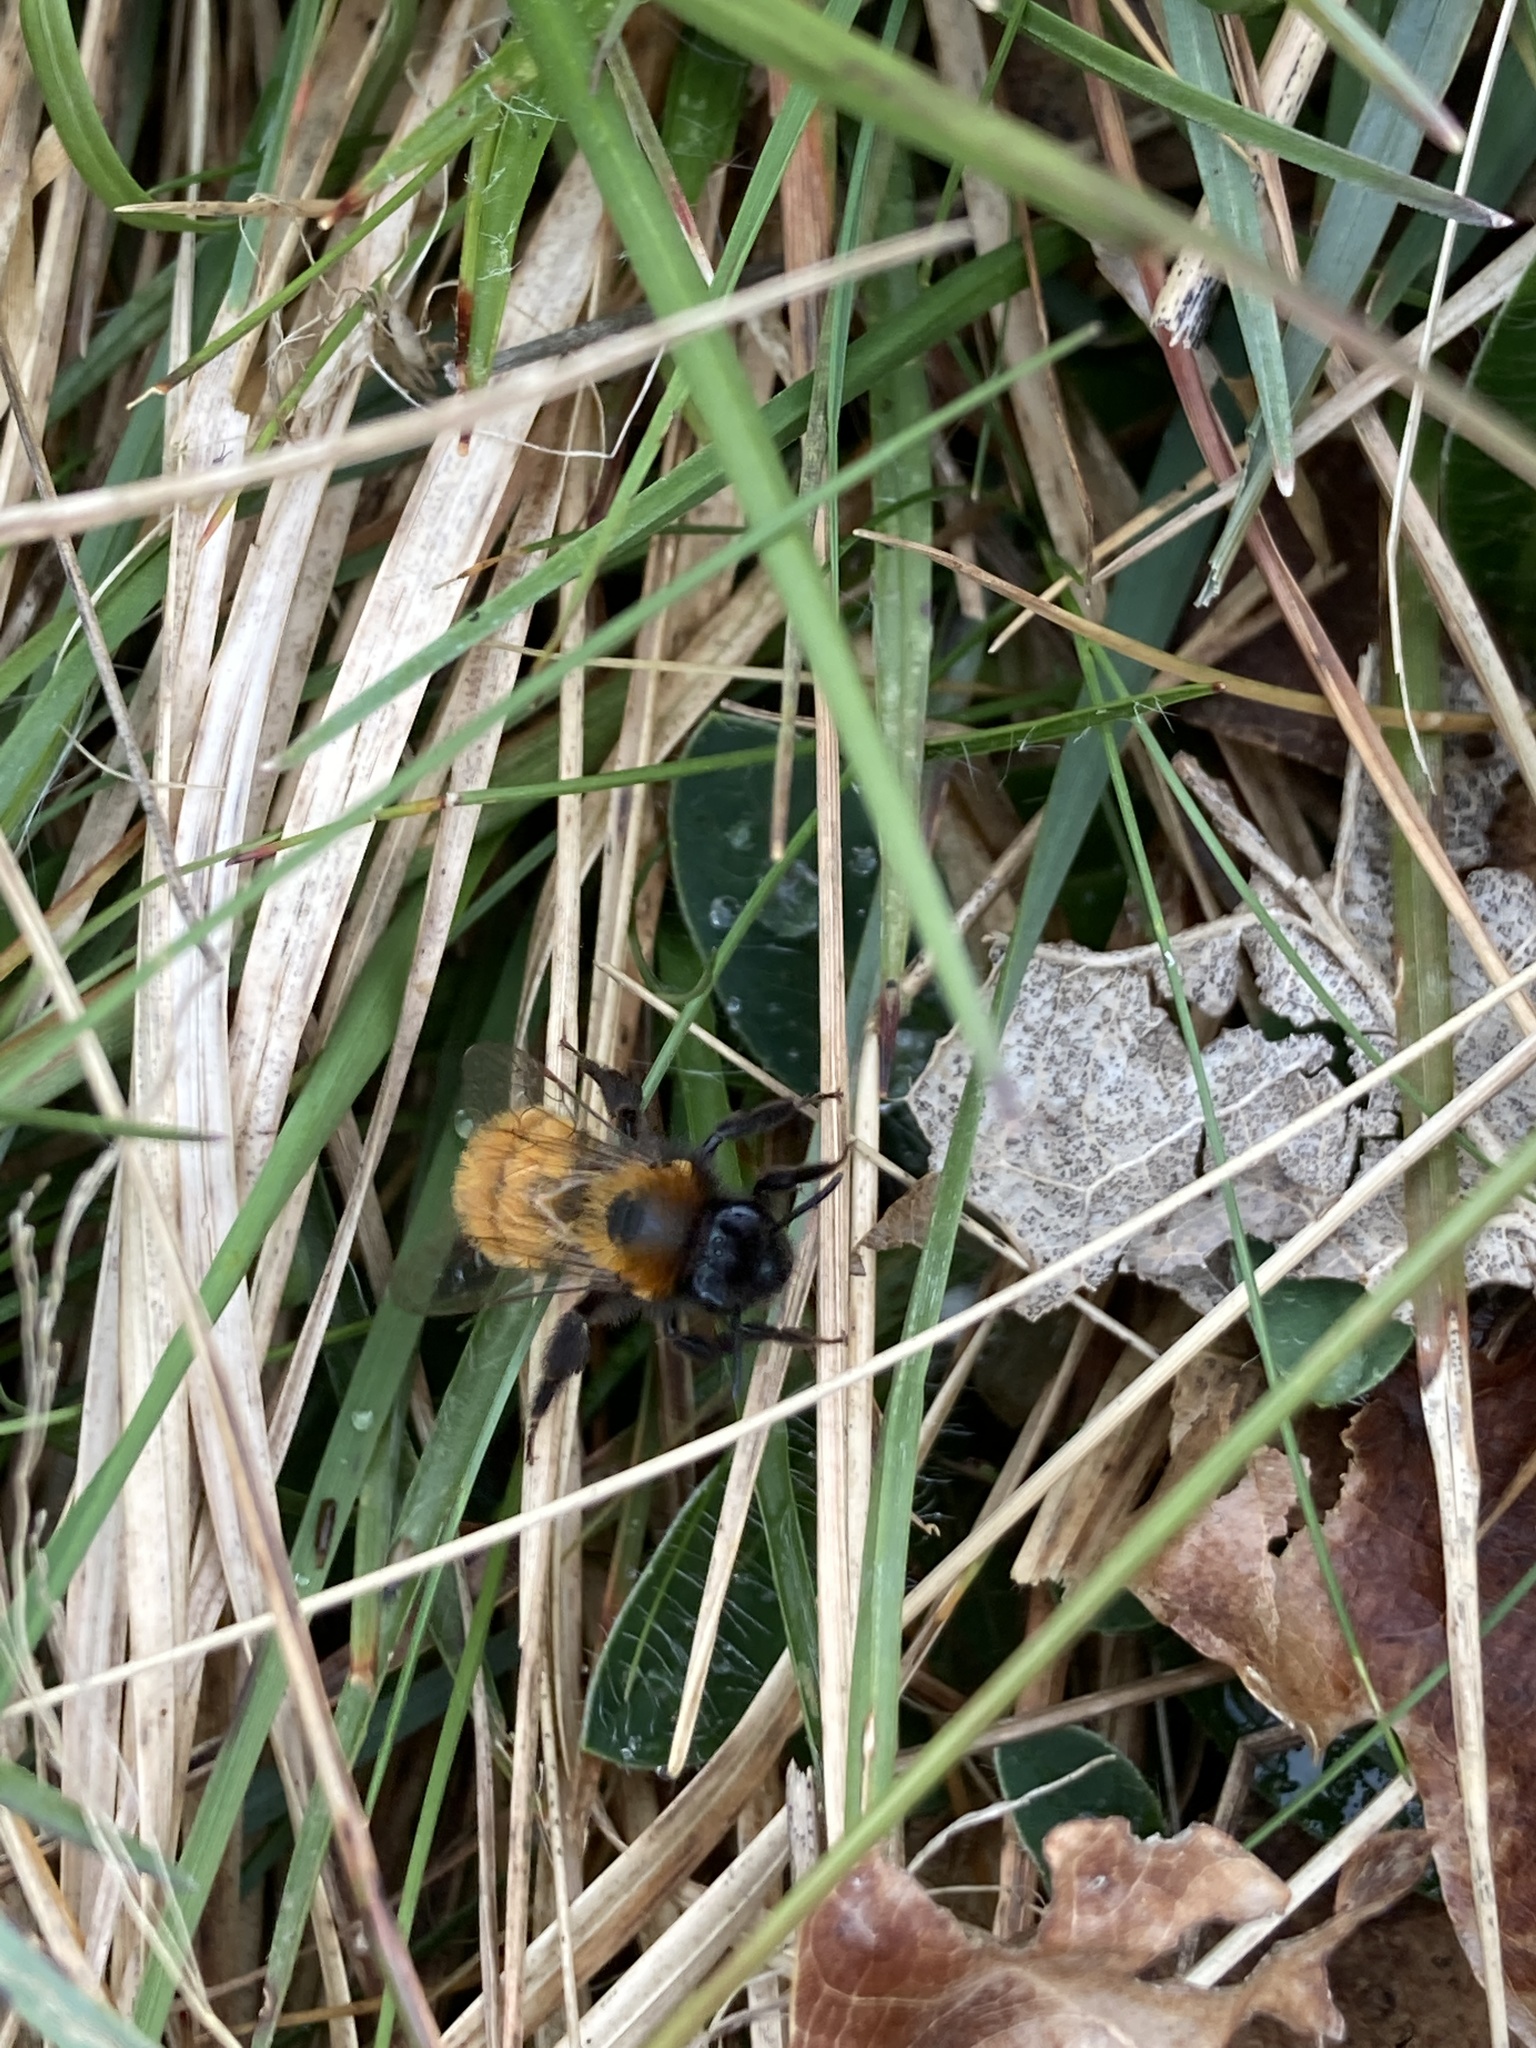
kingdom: Animalia
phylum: Arthropoda
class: Insecta
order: Hymenoptera
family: Andrenidae
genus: Andrena
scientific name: Andrena fulva
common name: Tawny mining bee
